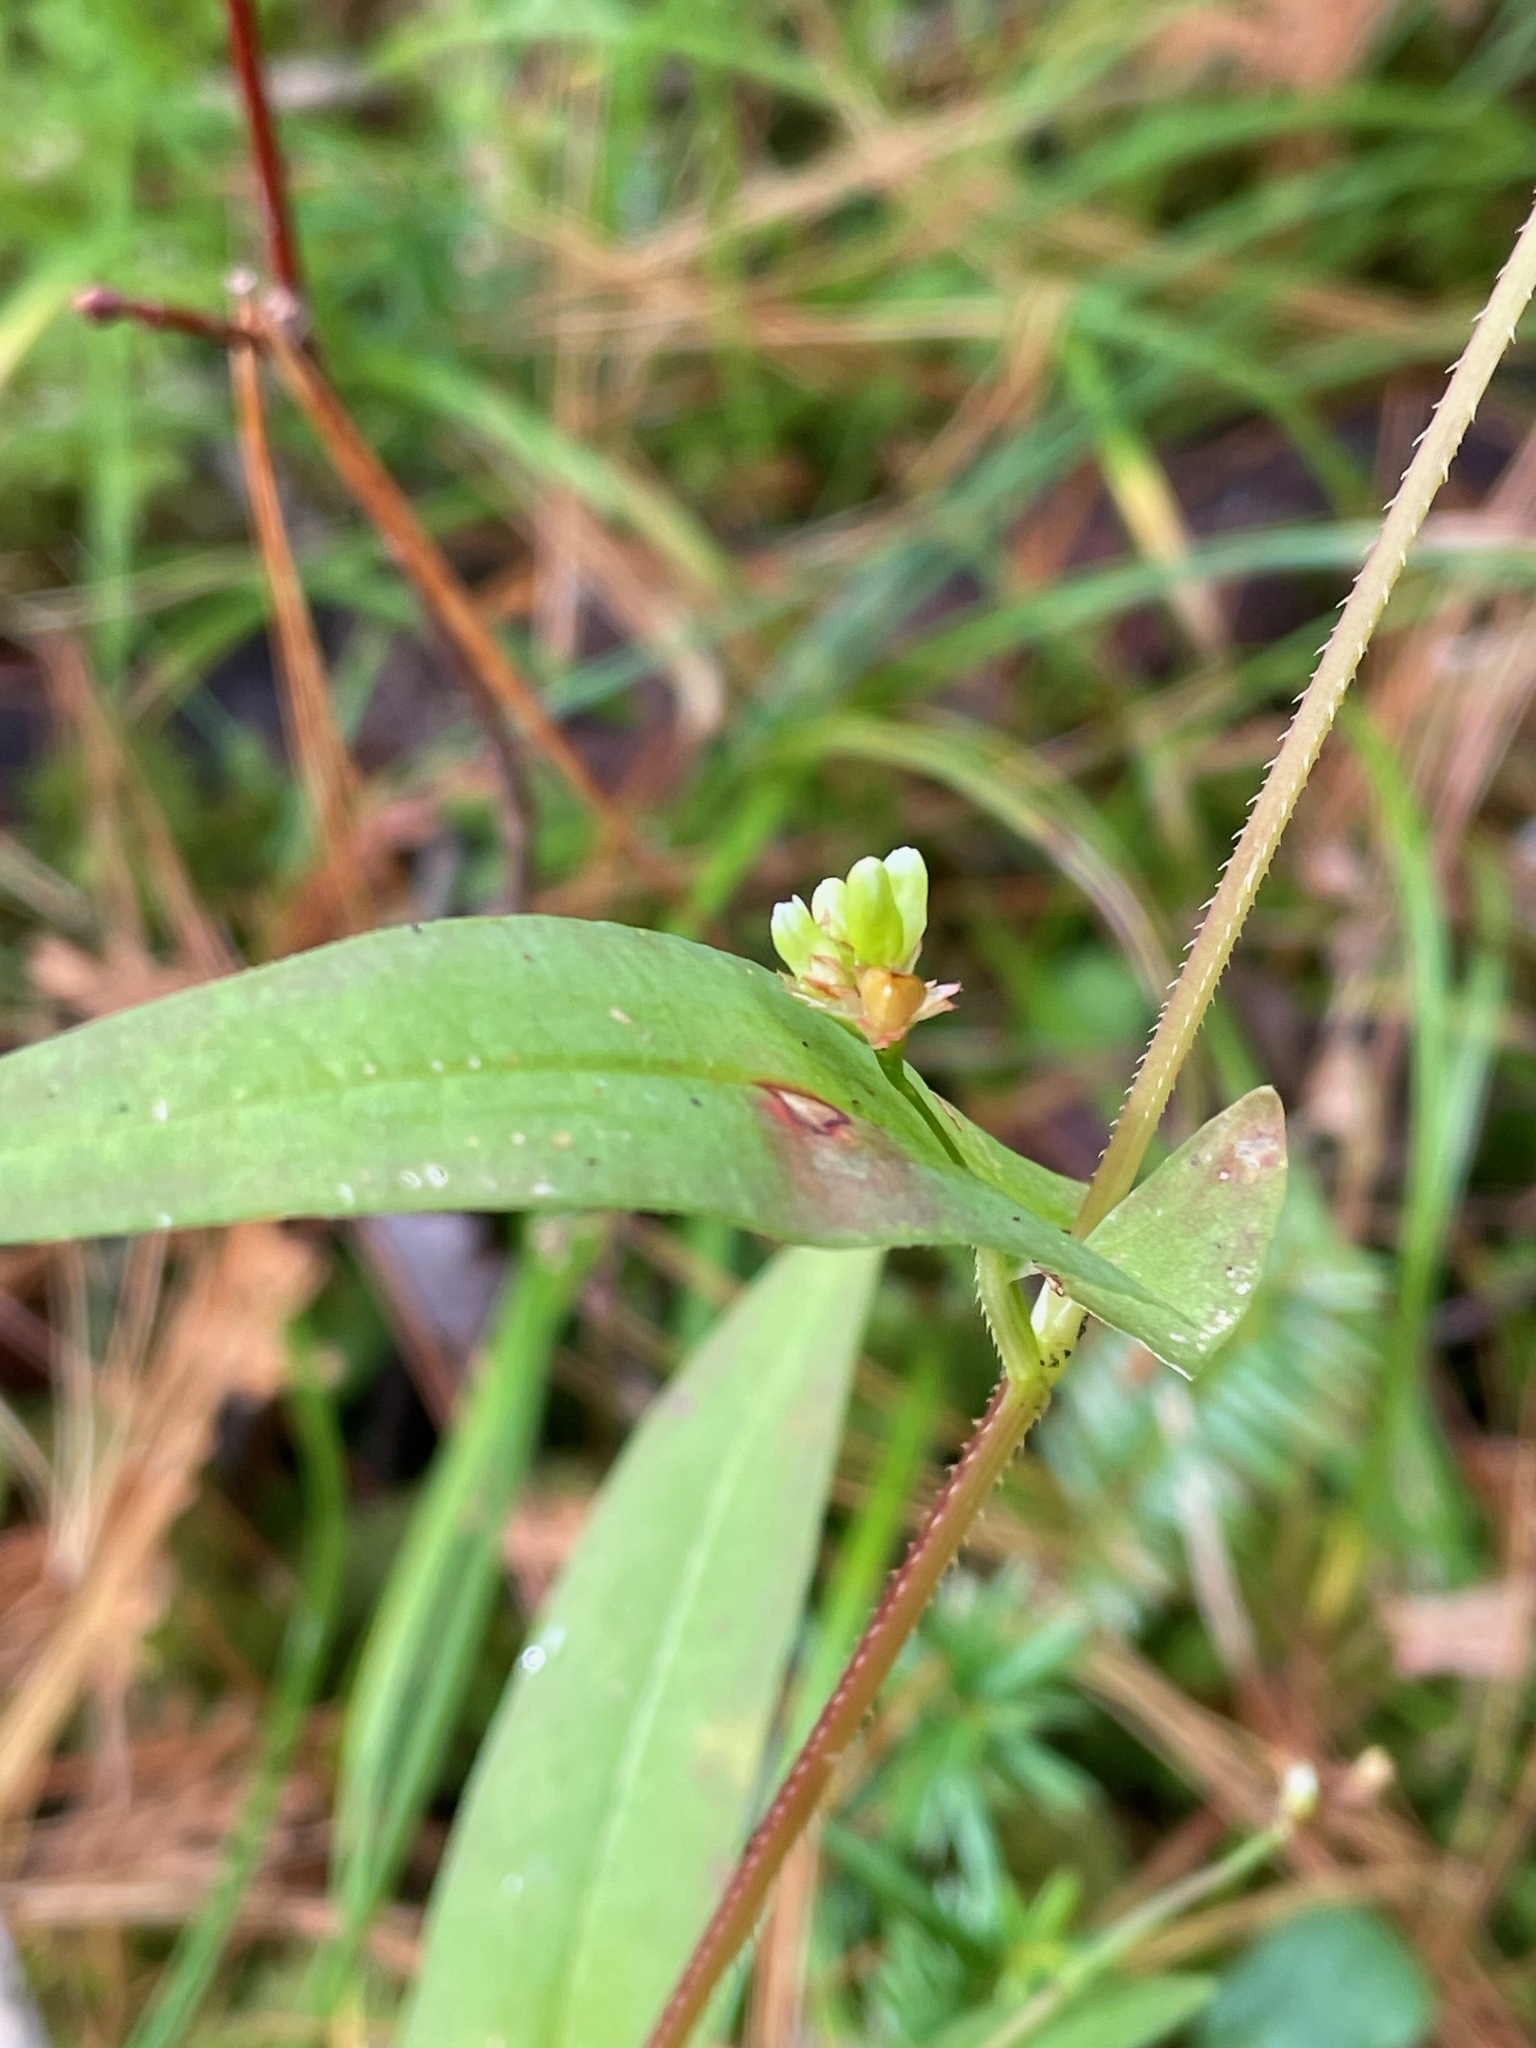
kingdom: Plantae
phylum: Tracheophyta
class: Magnoliopsida
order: Caryophyllales
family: Polygonaceae
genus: Persicaria
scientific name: Persicaria sagittata
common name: American tearthumb
